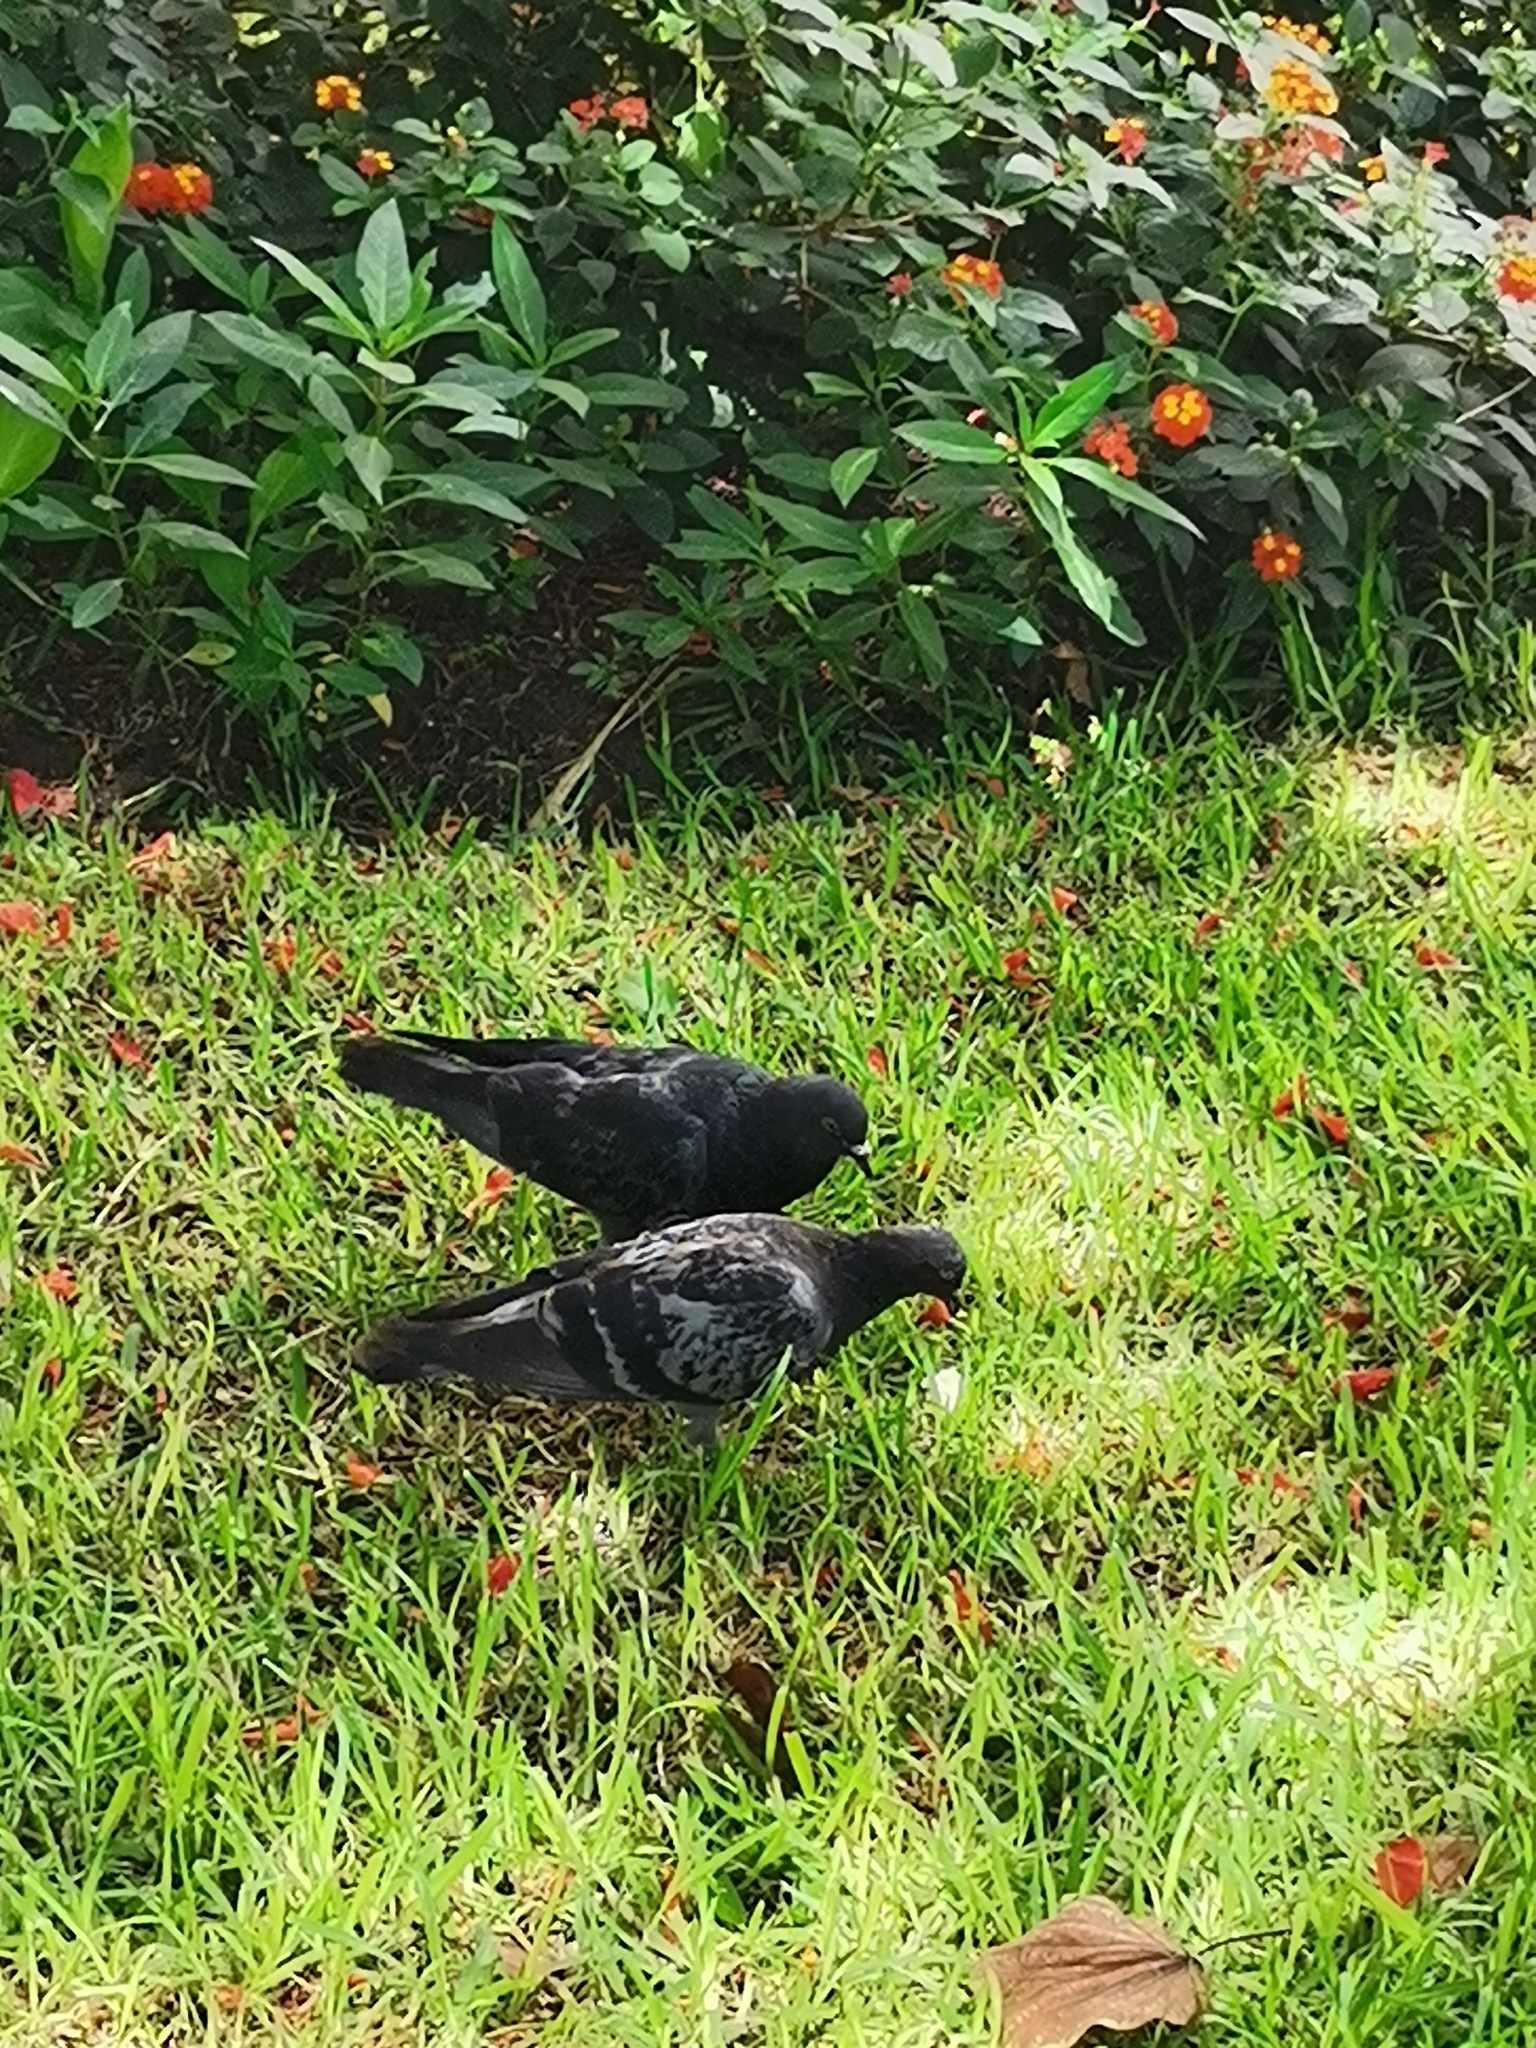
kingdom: Animalia
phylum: Chordata
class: Aves
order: Columbiformes
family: Columbidae
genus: Columba
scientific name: Columba livia
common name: Rock pigeon
